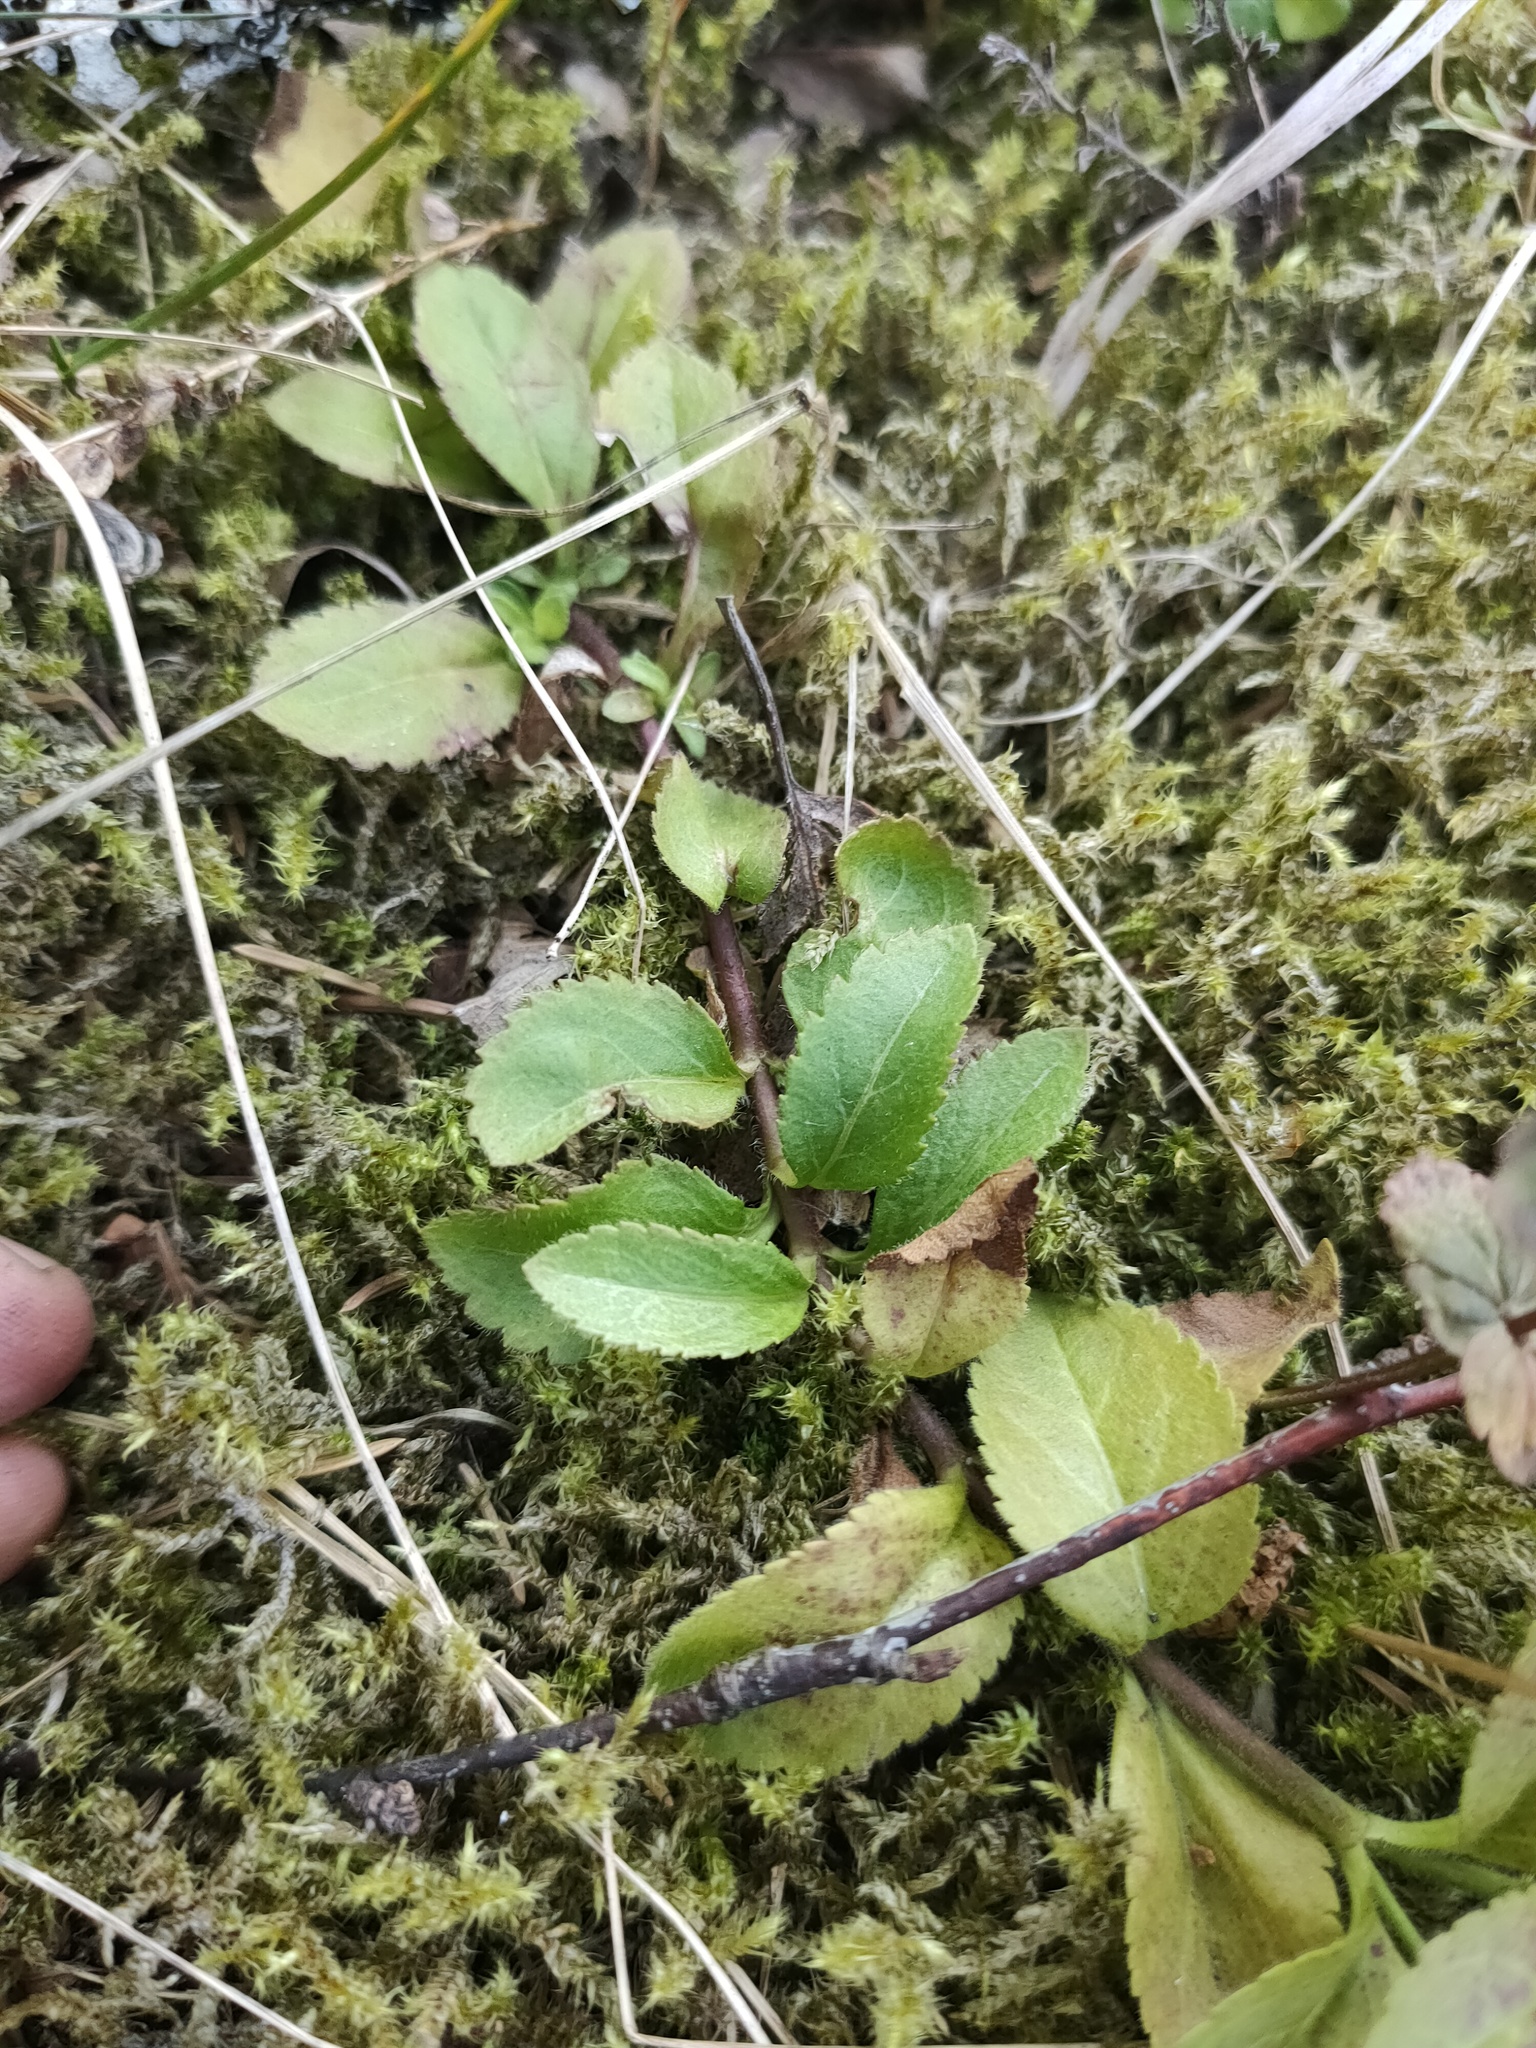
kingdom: Plantae
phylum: Tracheophyta
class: Magnoliopsida
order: Lamiales
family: Plantaginaceae
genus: Veronica
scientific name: Veronica officinalis
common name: Common speedwell
